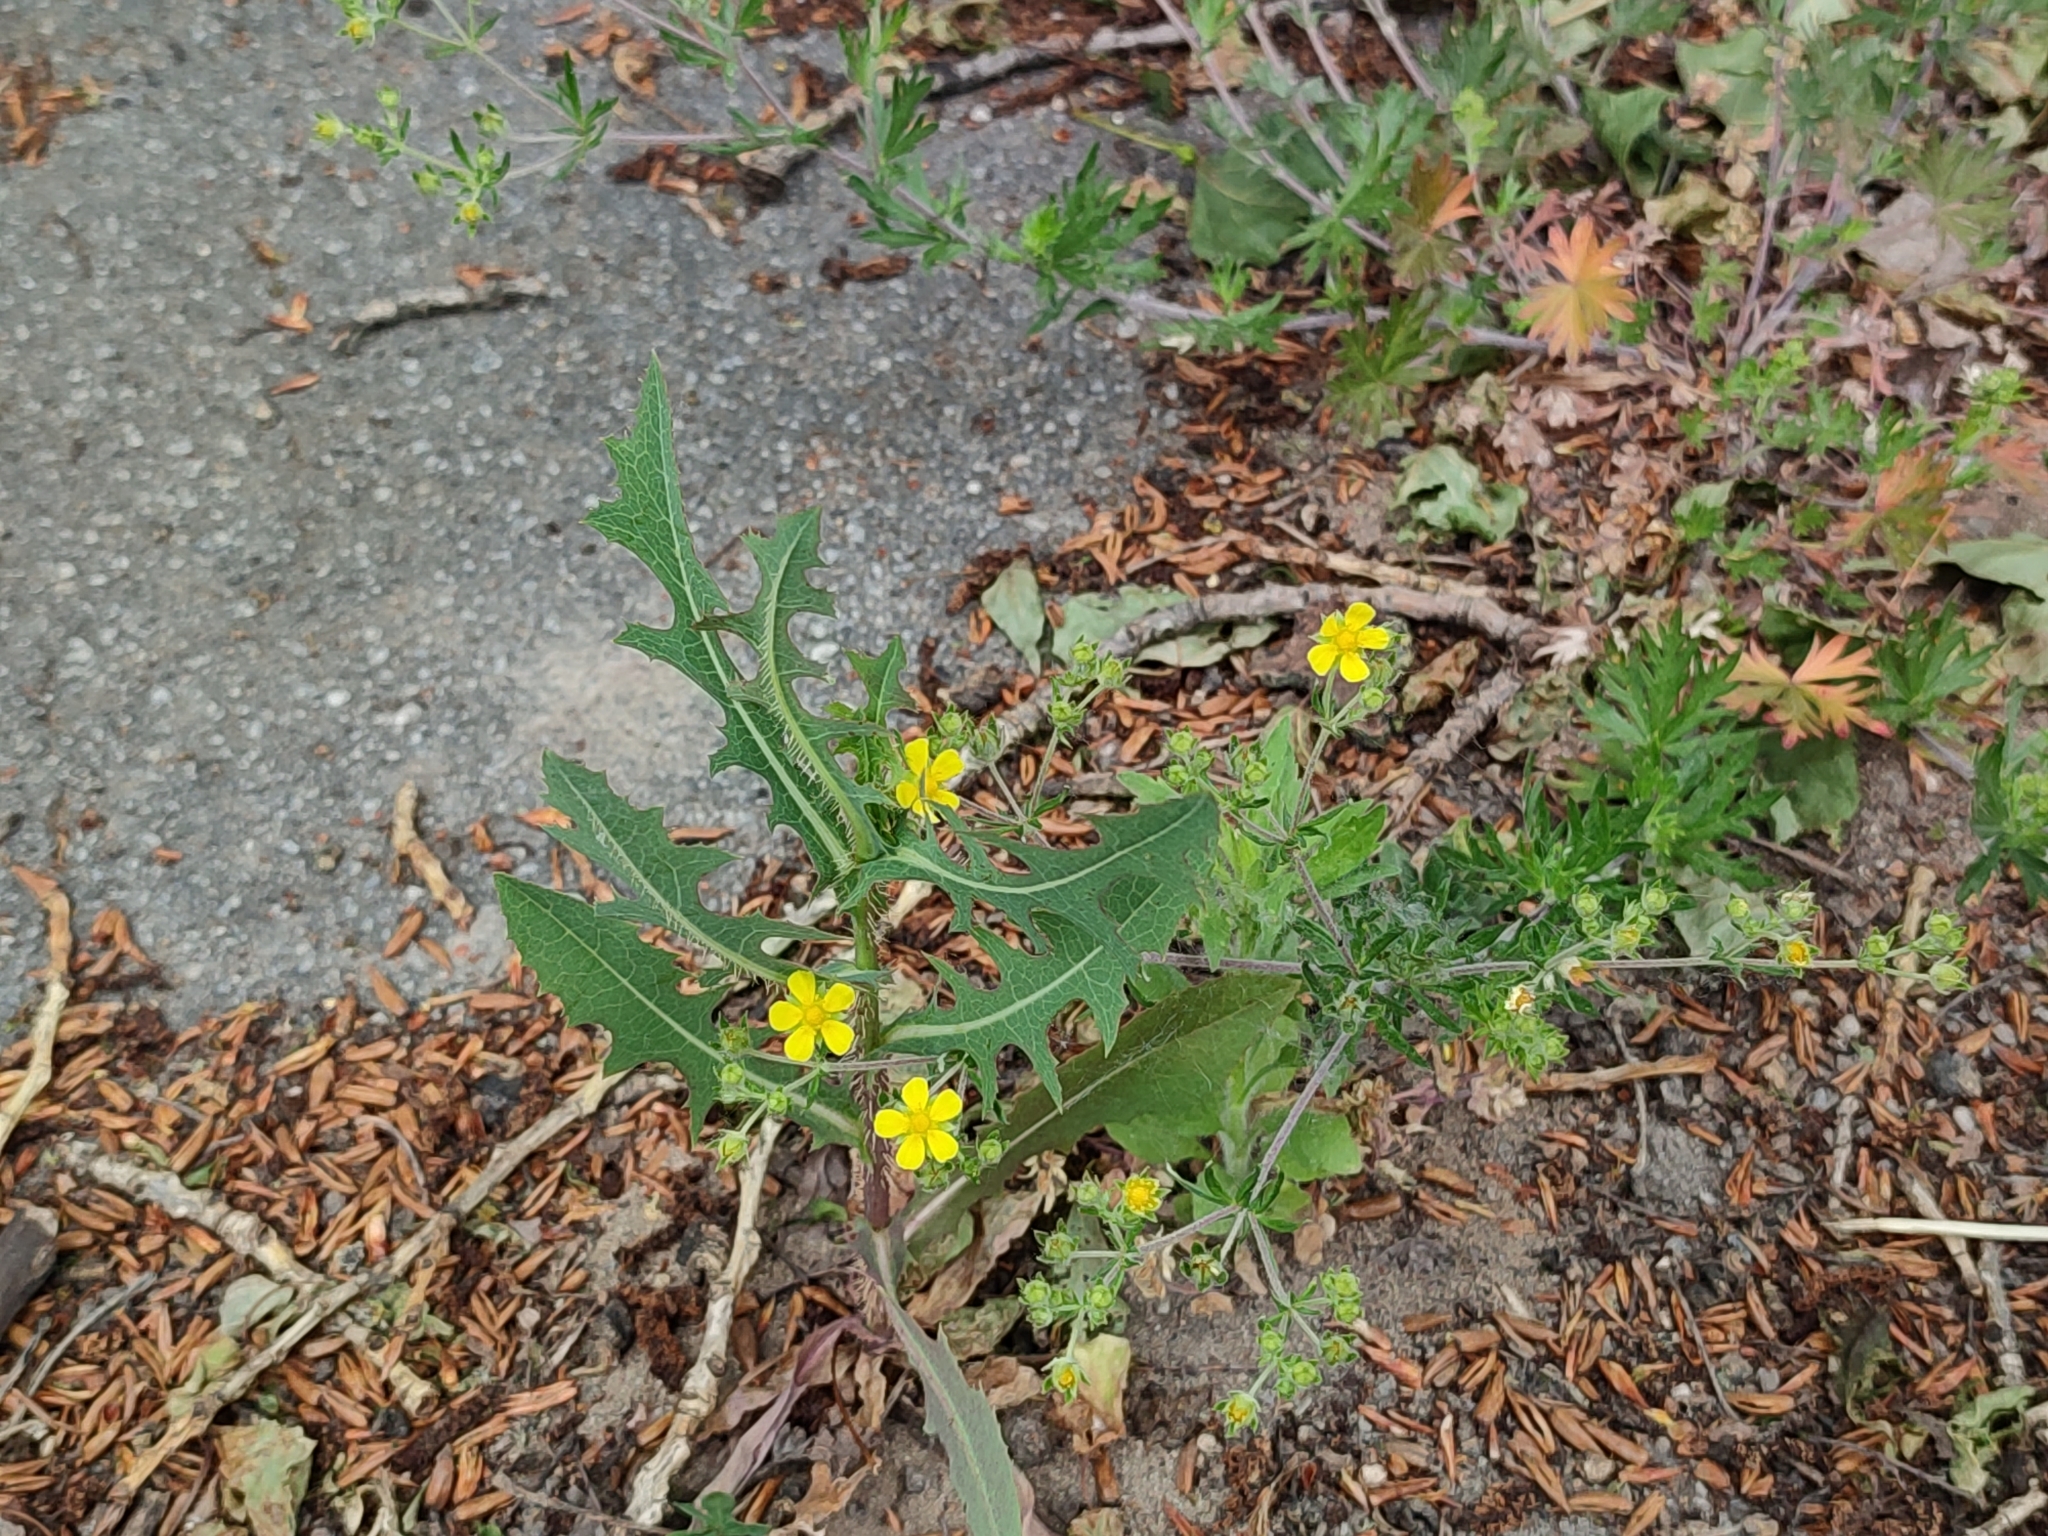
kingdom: Plantae
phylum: Tracheophyta
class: Magnoliopsida
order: Rosales
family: Rosaceae
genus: Potentilla
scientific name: Potentilla argentea
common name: Hoary cinquefoil
